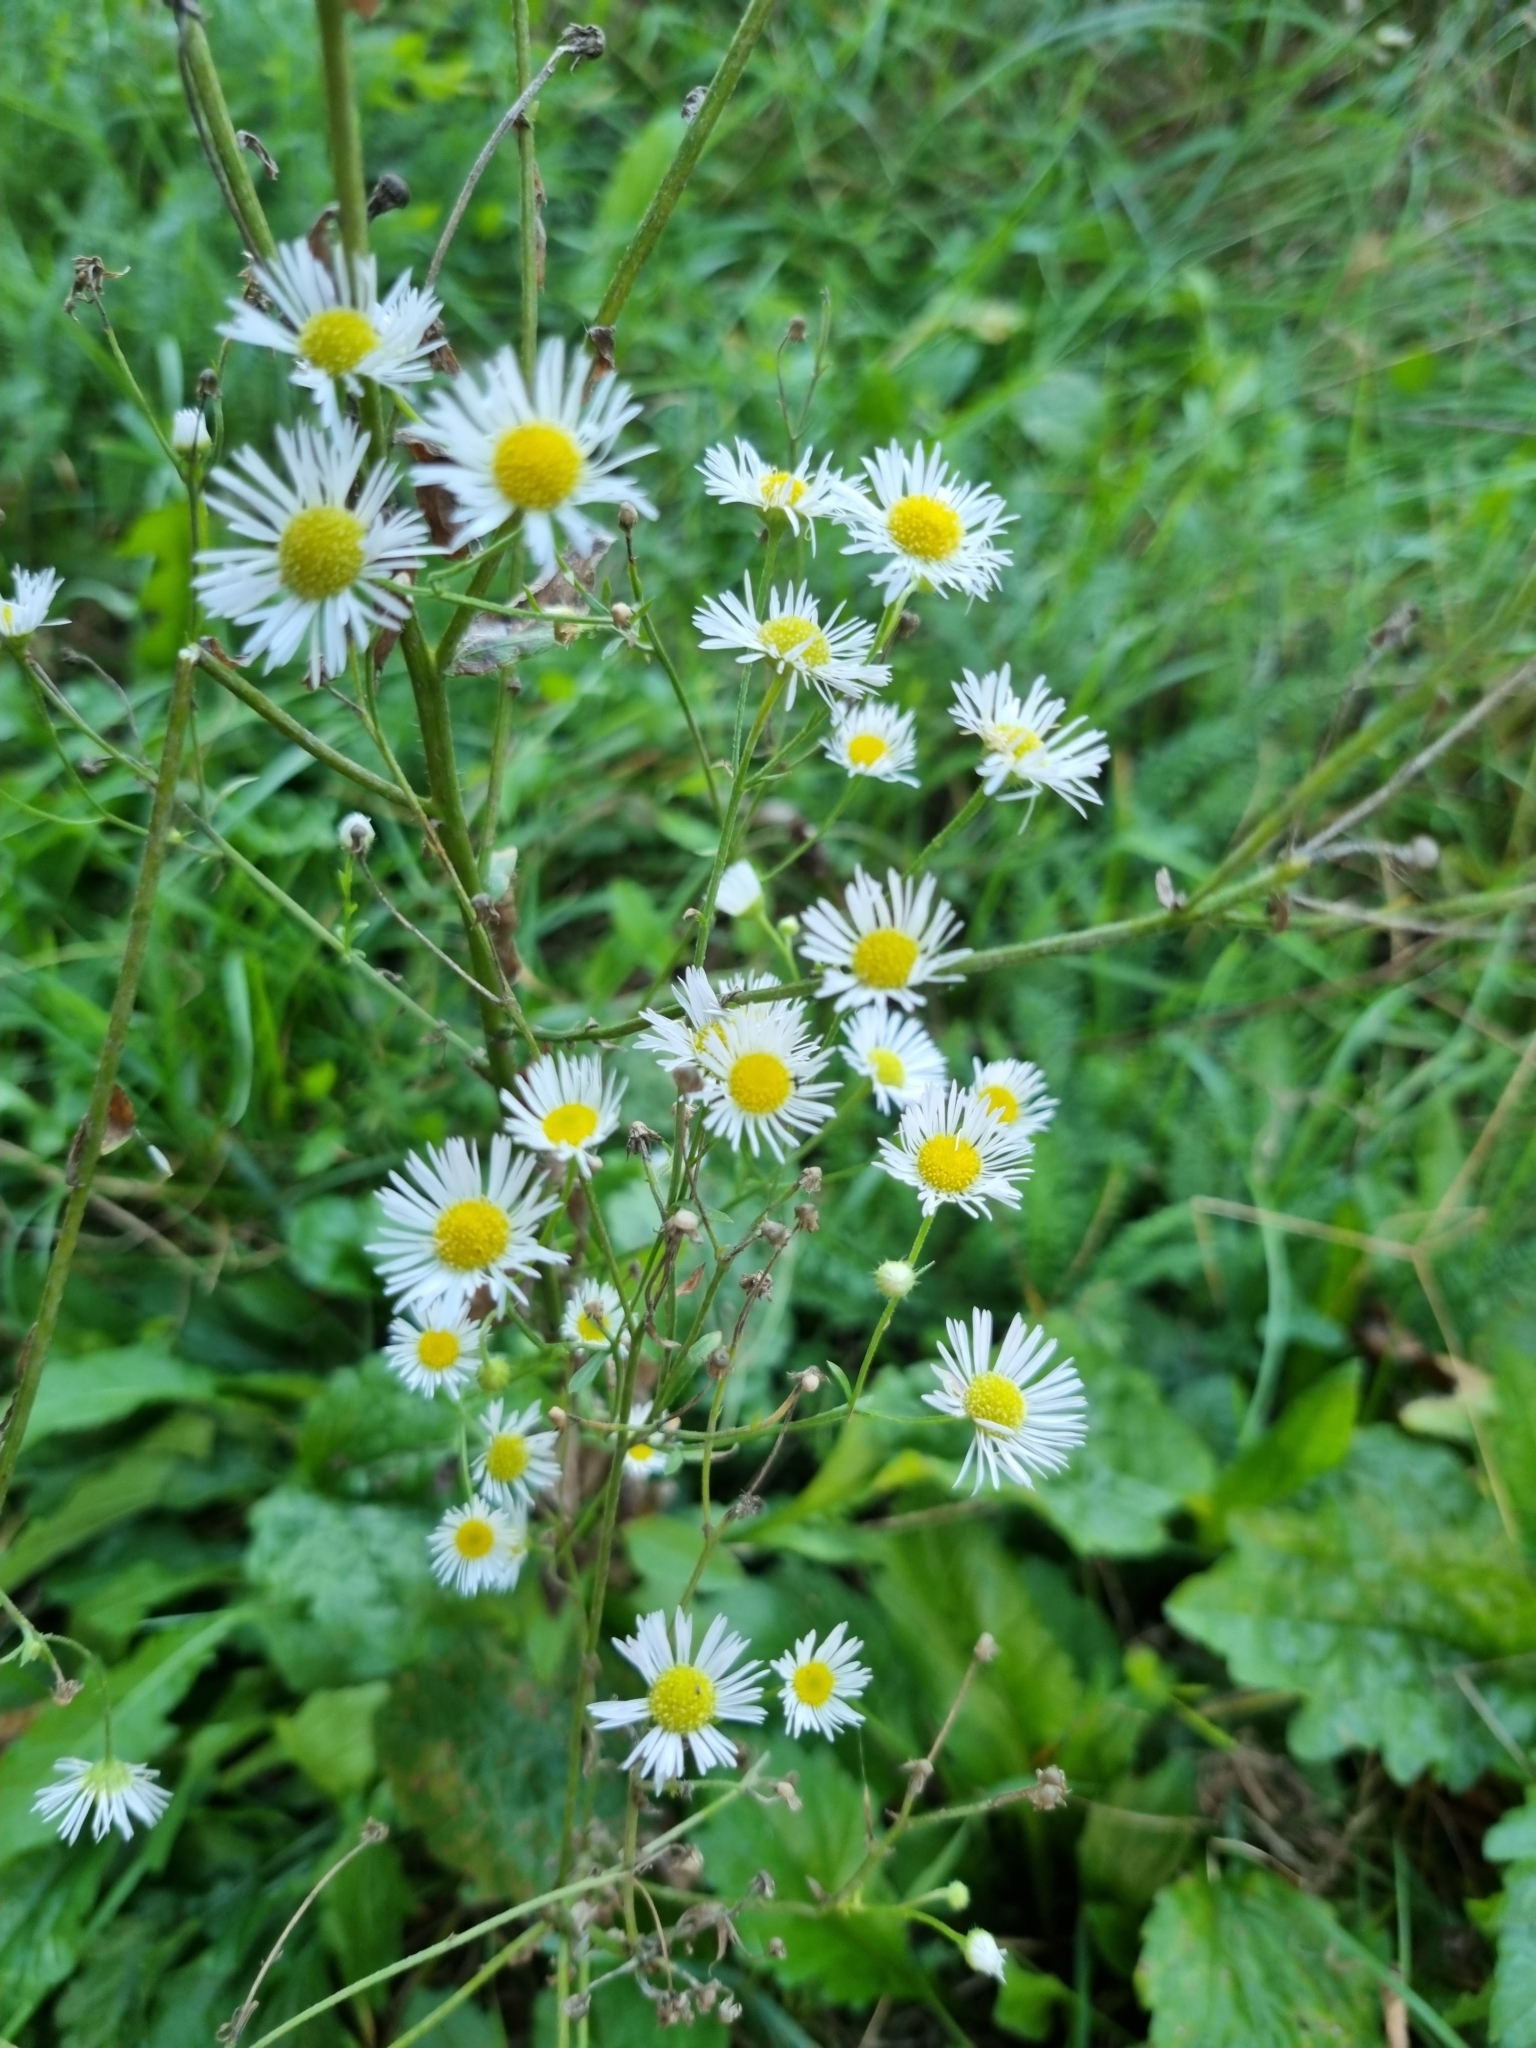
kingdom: Plantae
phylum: Tracheophyta
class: Magnoliopsida
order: Asterales
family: Asteraceae
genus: Erigeron
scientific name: Erigeron annuus
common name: Tall fleabane
